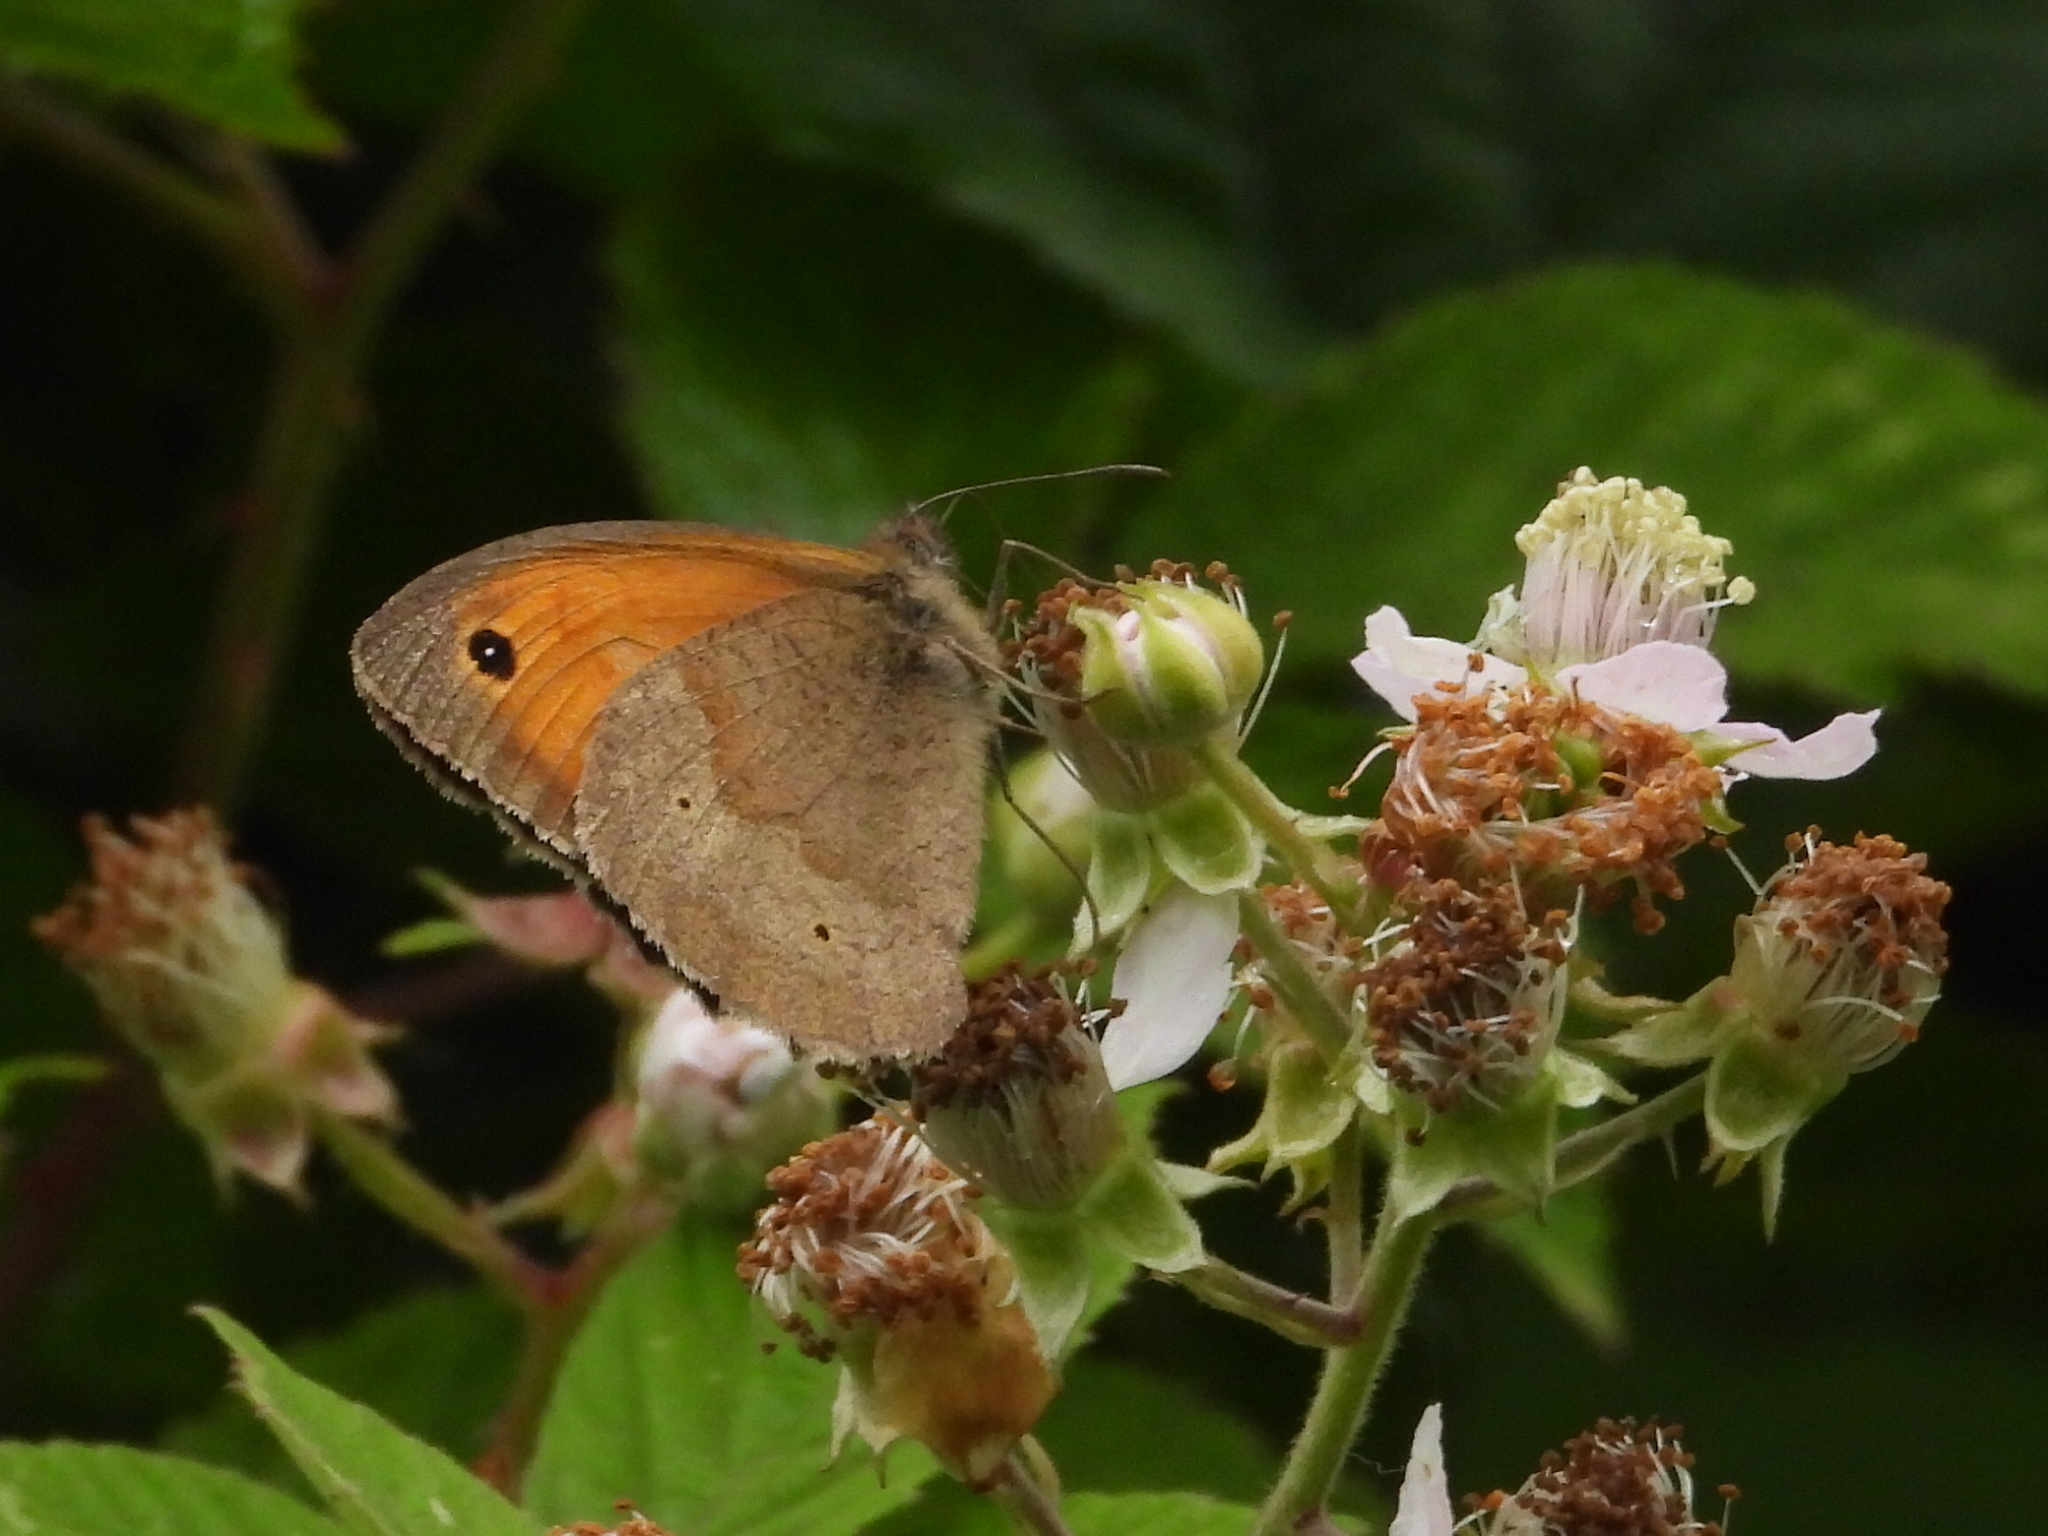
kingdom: Animalia
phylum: Arthropoda
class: Insecta
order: Lepidoptera
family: Nymphalidae
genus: Maniola
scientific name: Maniola jurtina
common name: Meadow brown
